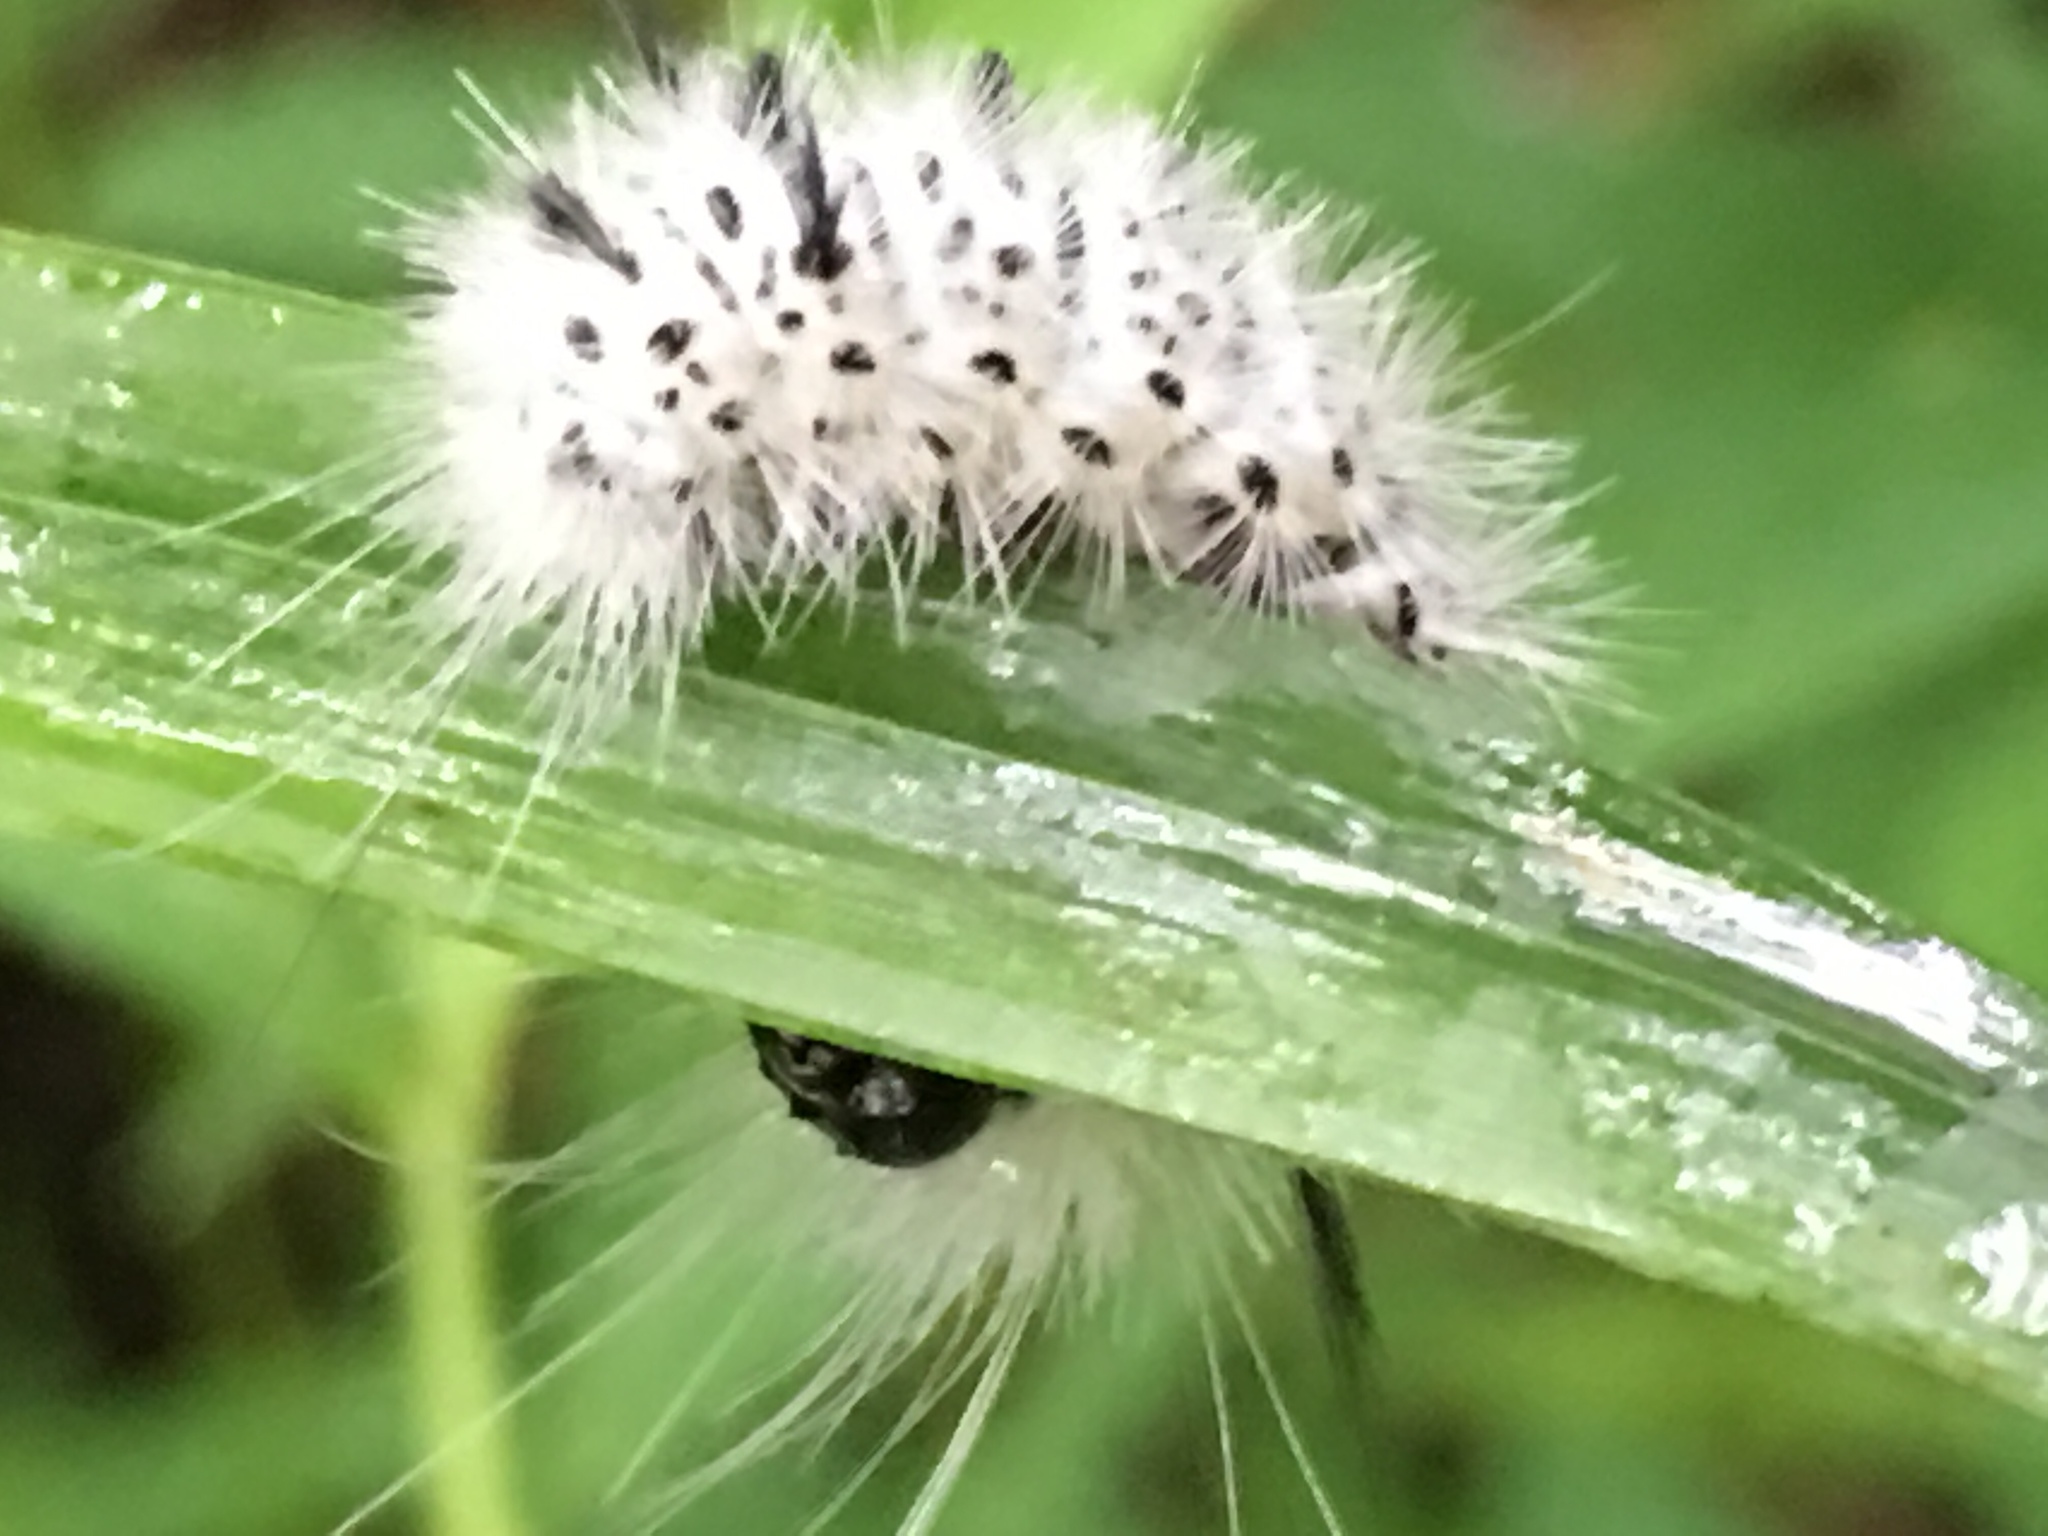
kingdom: Animalia
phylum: Arthropoda
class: Insecta
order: Lepidoptera
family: Erebidae
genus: Lophocampa
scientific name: Lophocampa caryae
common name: Hickory tussock moth
